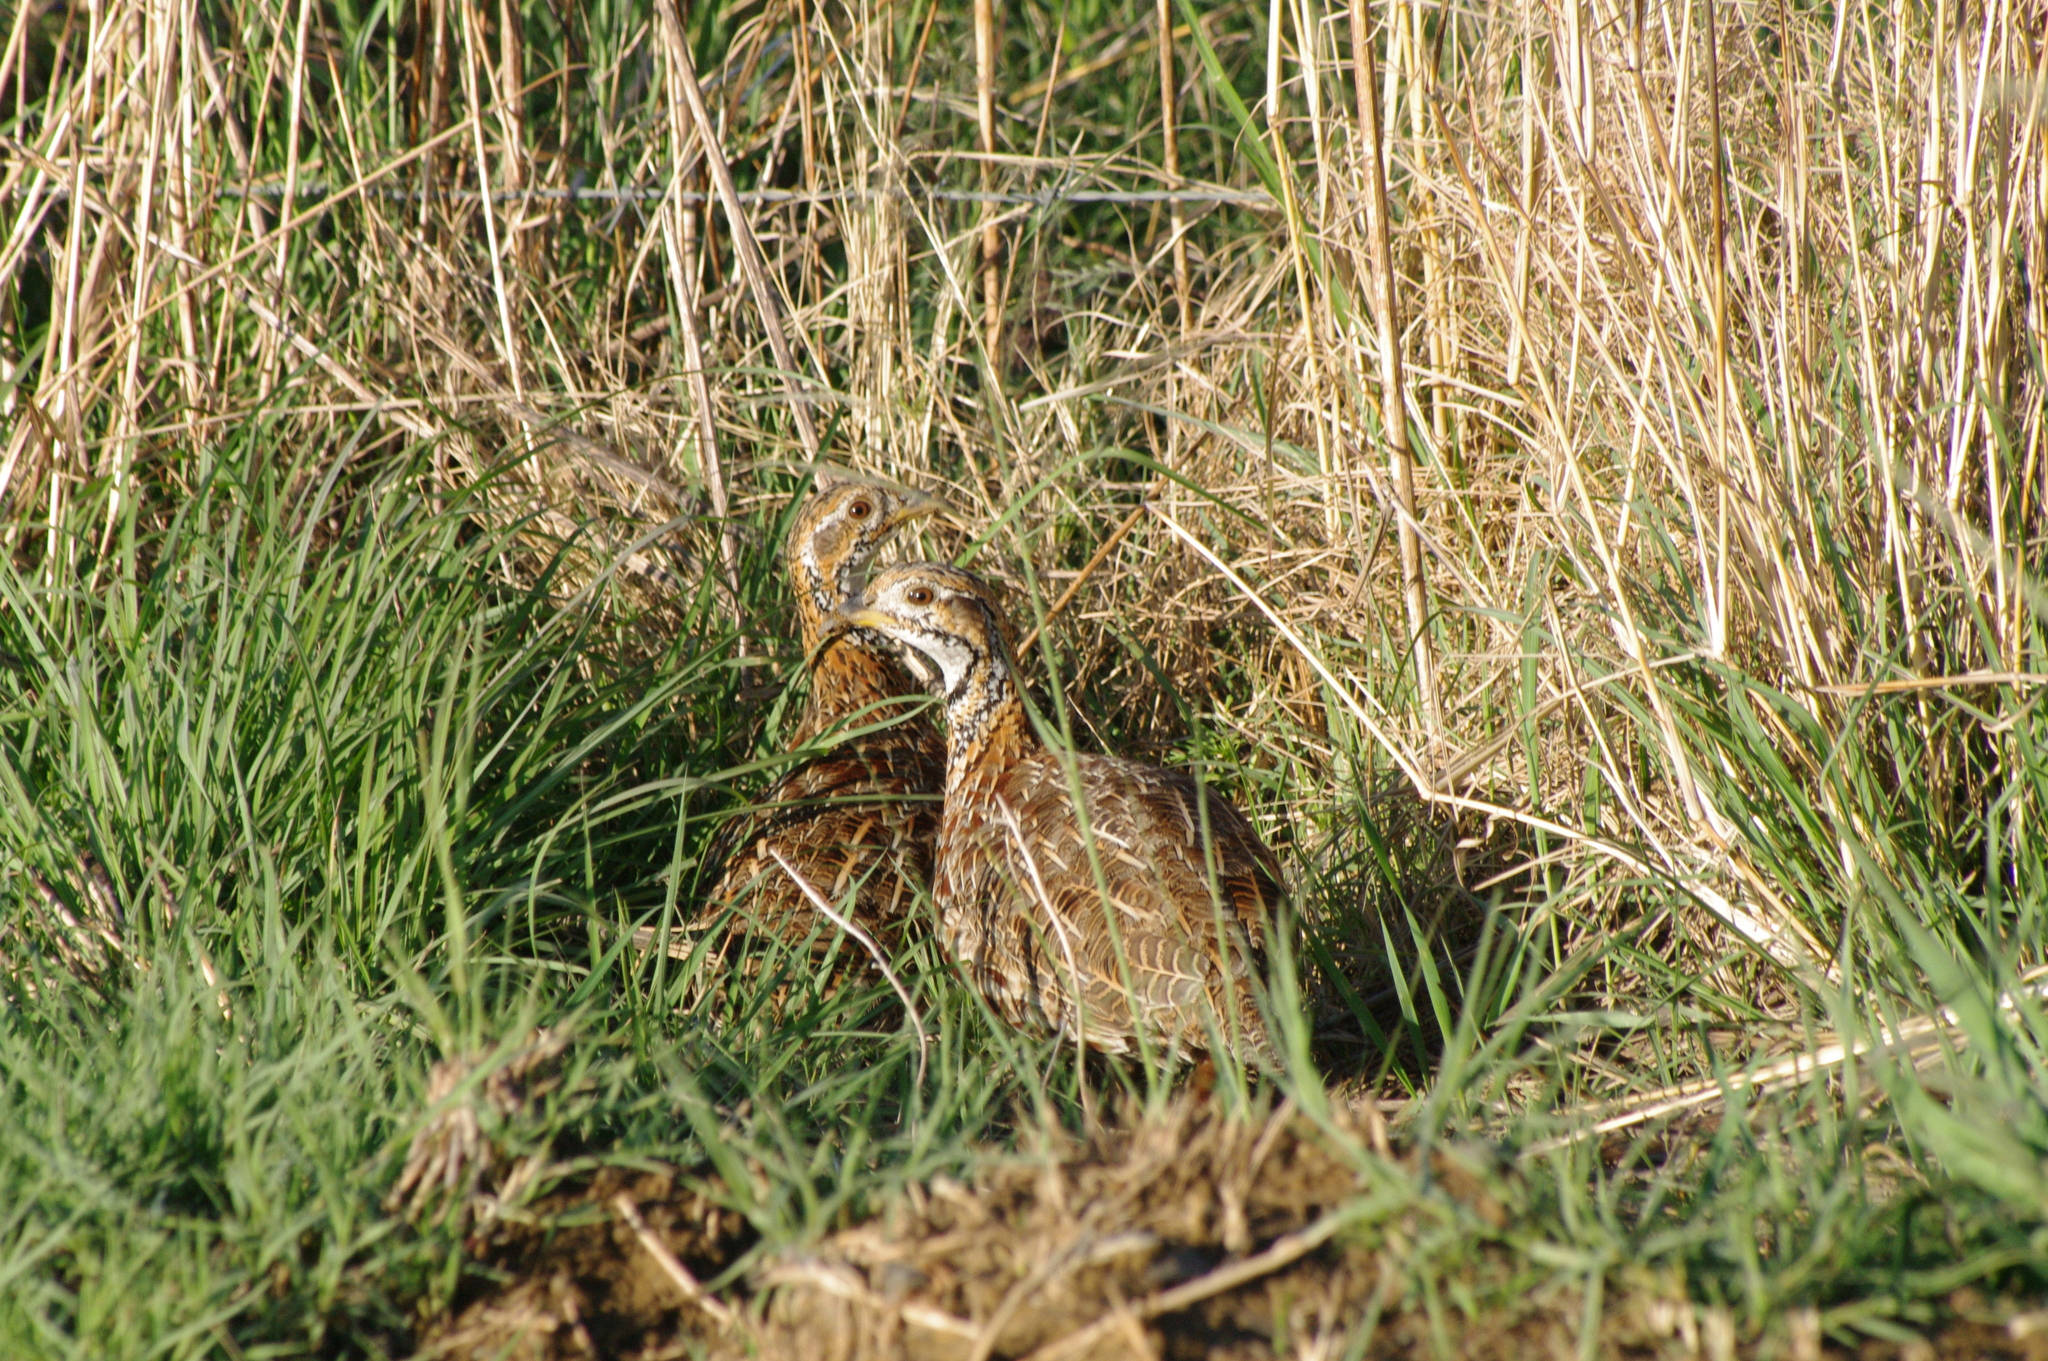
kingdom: Animalia
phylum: Chordata
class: Aves
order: Galliformes
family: Phasianidae
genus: Scleroptila
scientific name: Scleroptila gutturalis
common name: Orange river francolin
